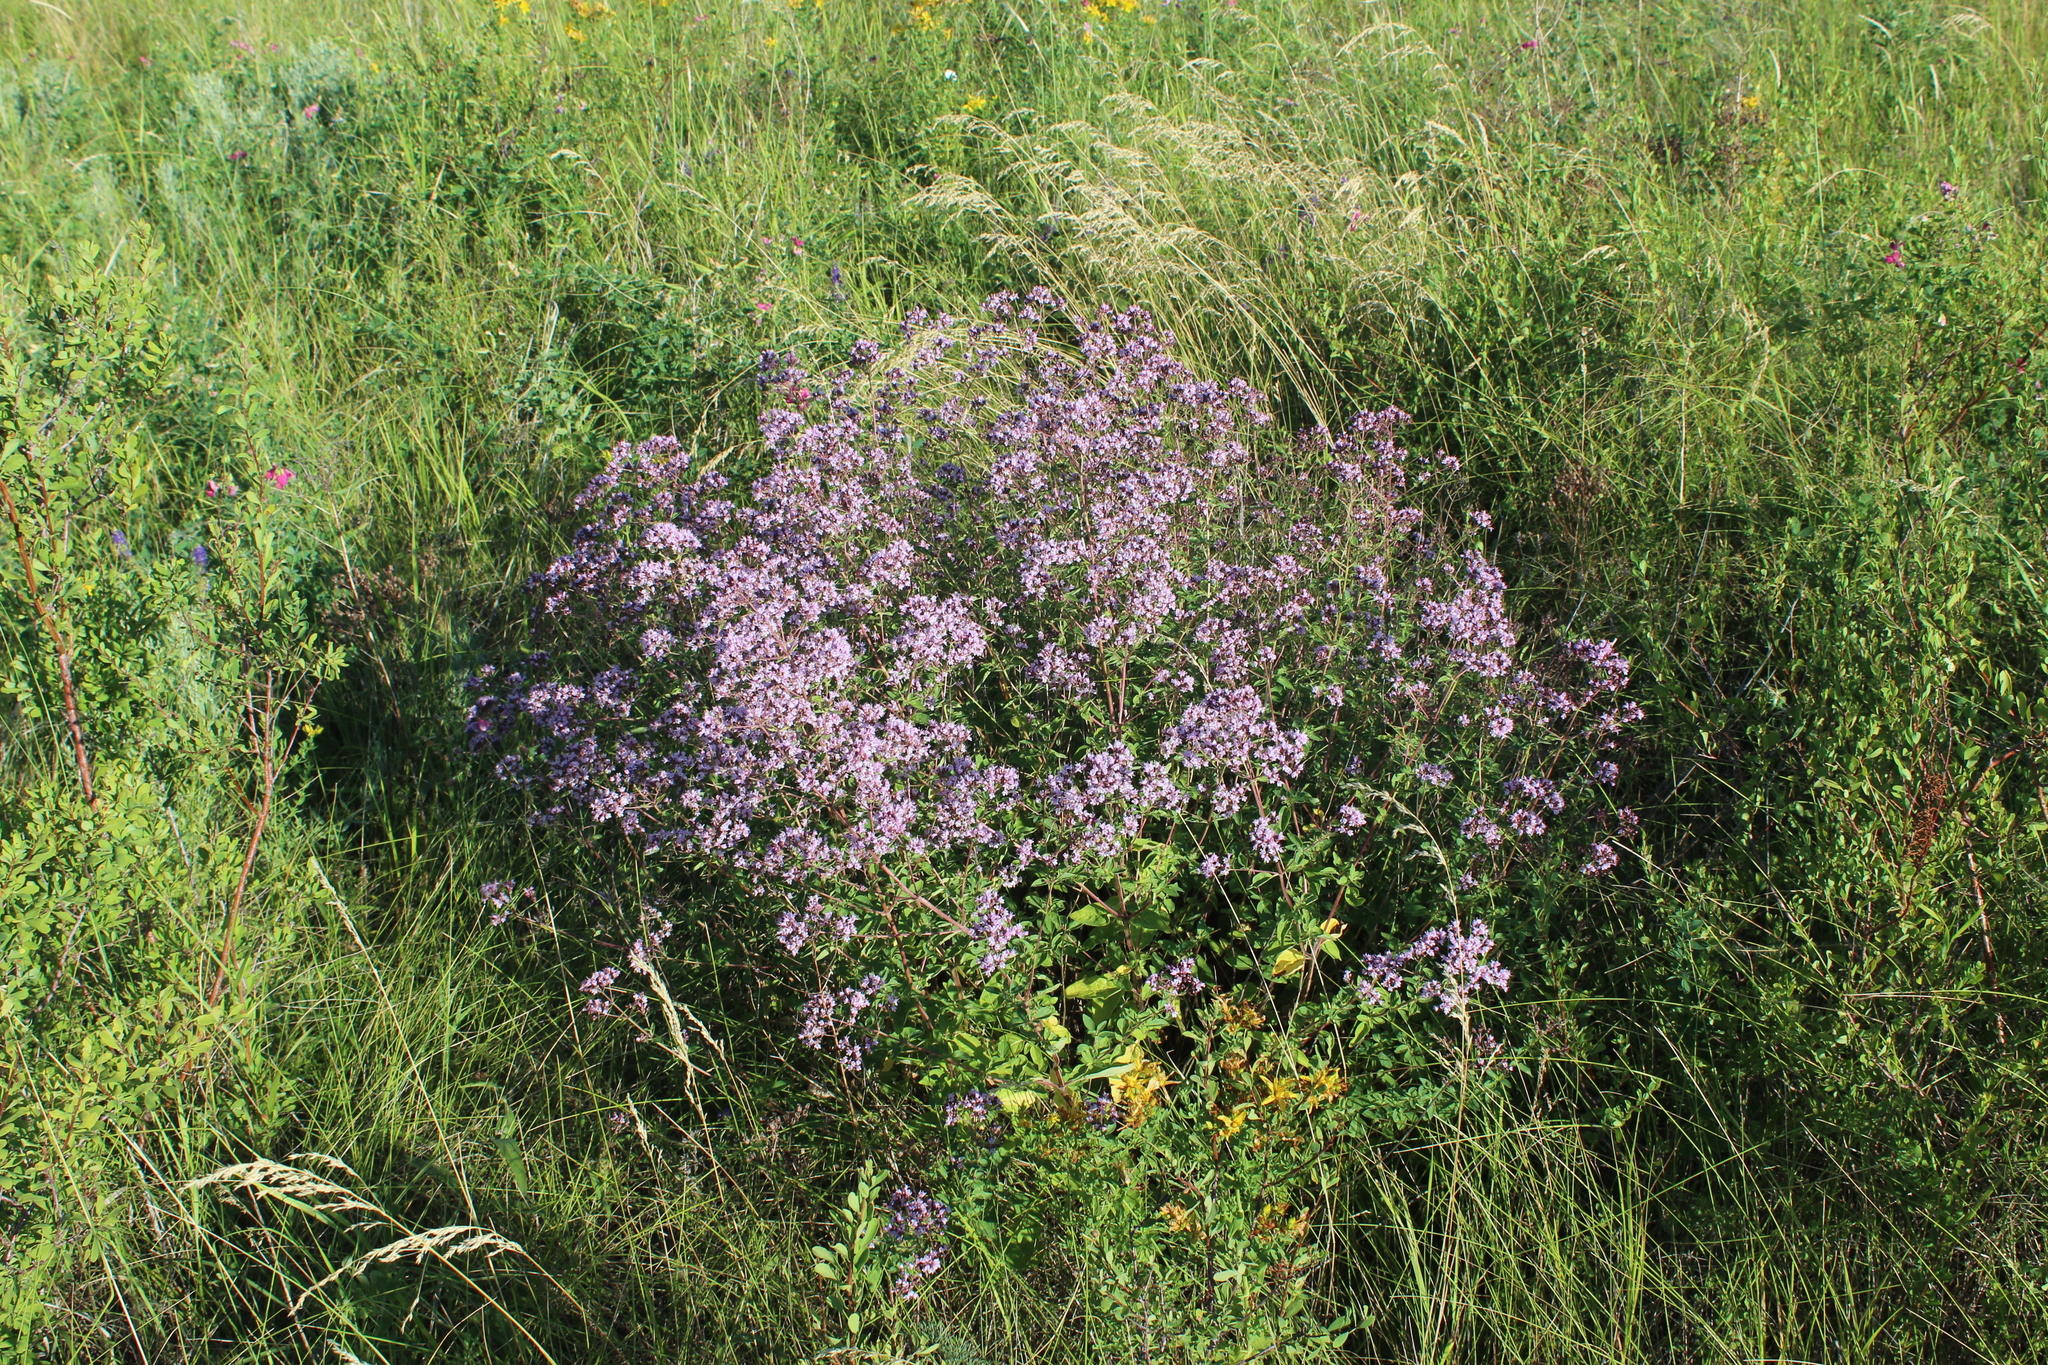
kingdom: Plantae
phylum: Tracheophyta
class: Magnoliopsida
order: Lamiales
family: Lamiaceae
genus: Origanum
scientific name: Origanum vulgare
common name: Wild marjoram
